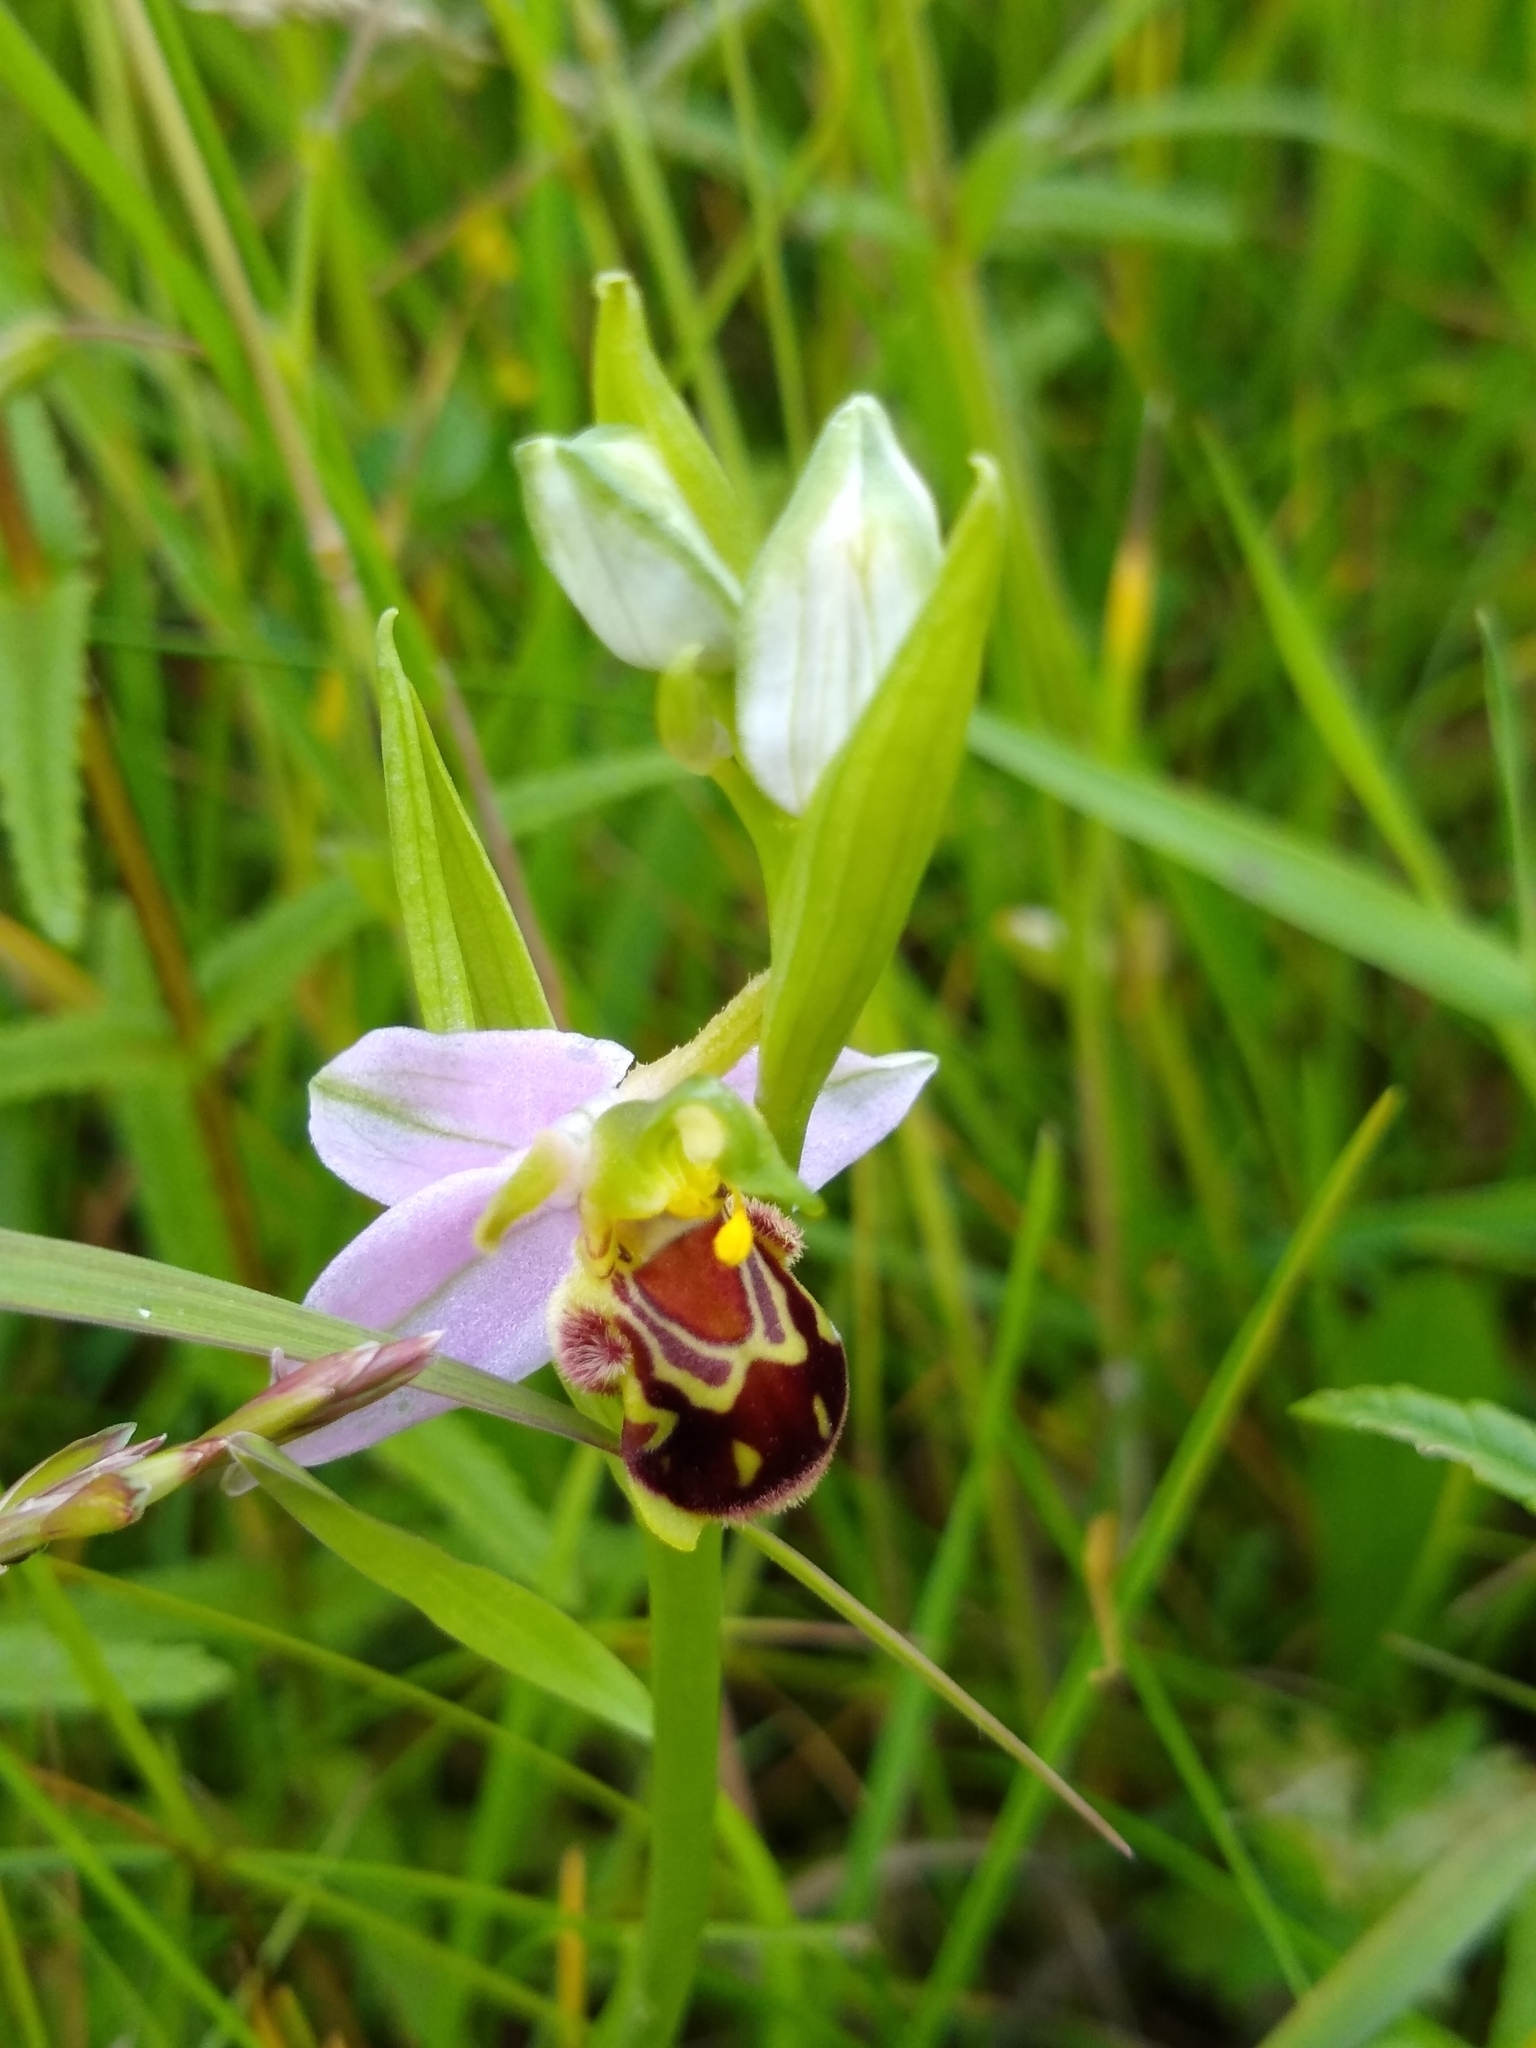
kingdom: Plantae
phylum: Tracheophyta
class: Liliopsida
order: Asparagales
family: Orchidaceae
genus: Ophrys
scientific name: Ophrys apifera
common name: Bee orchid
